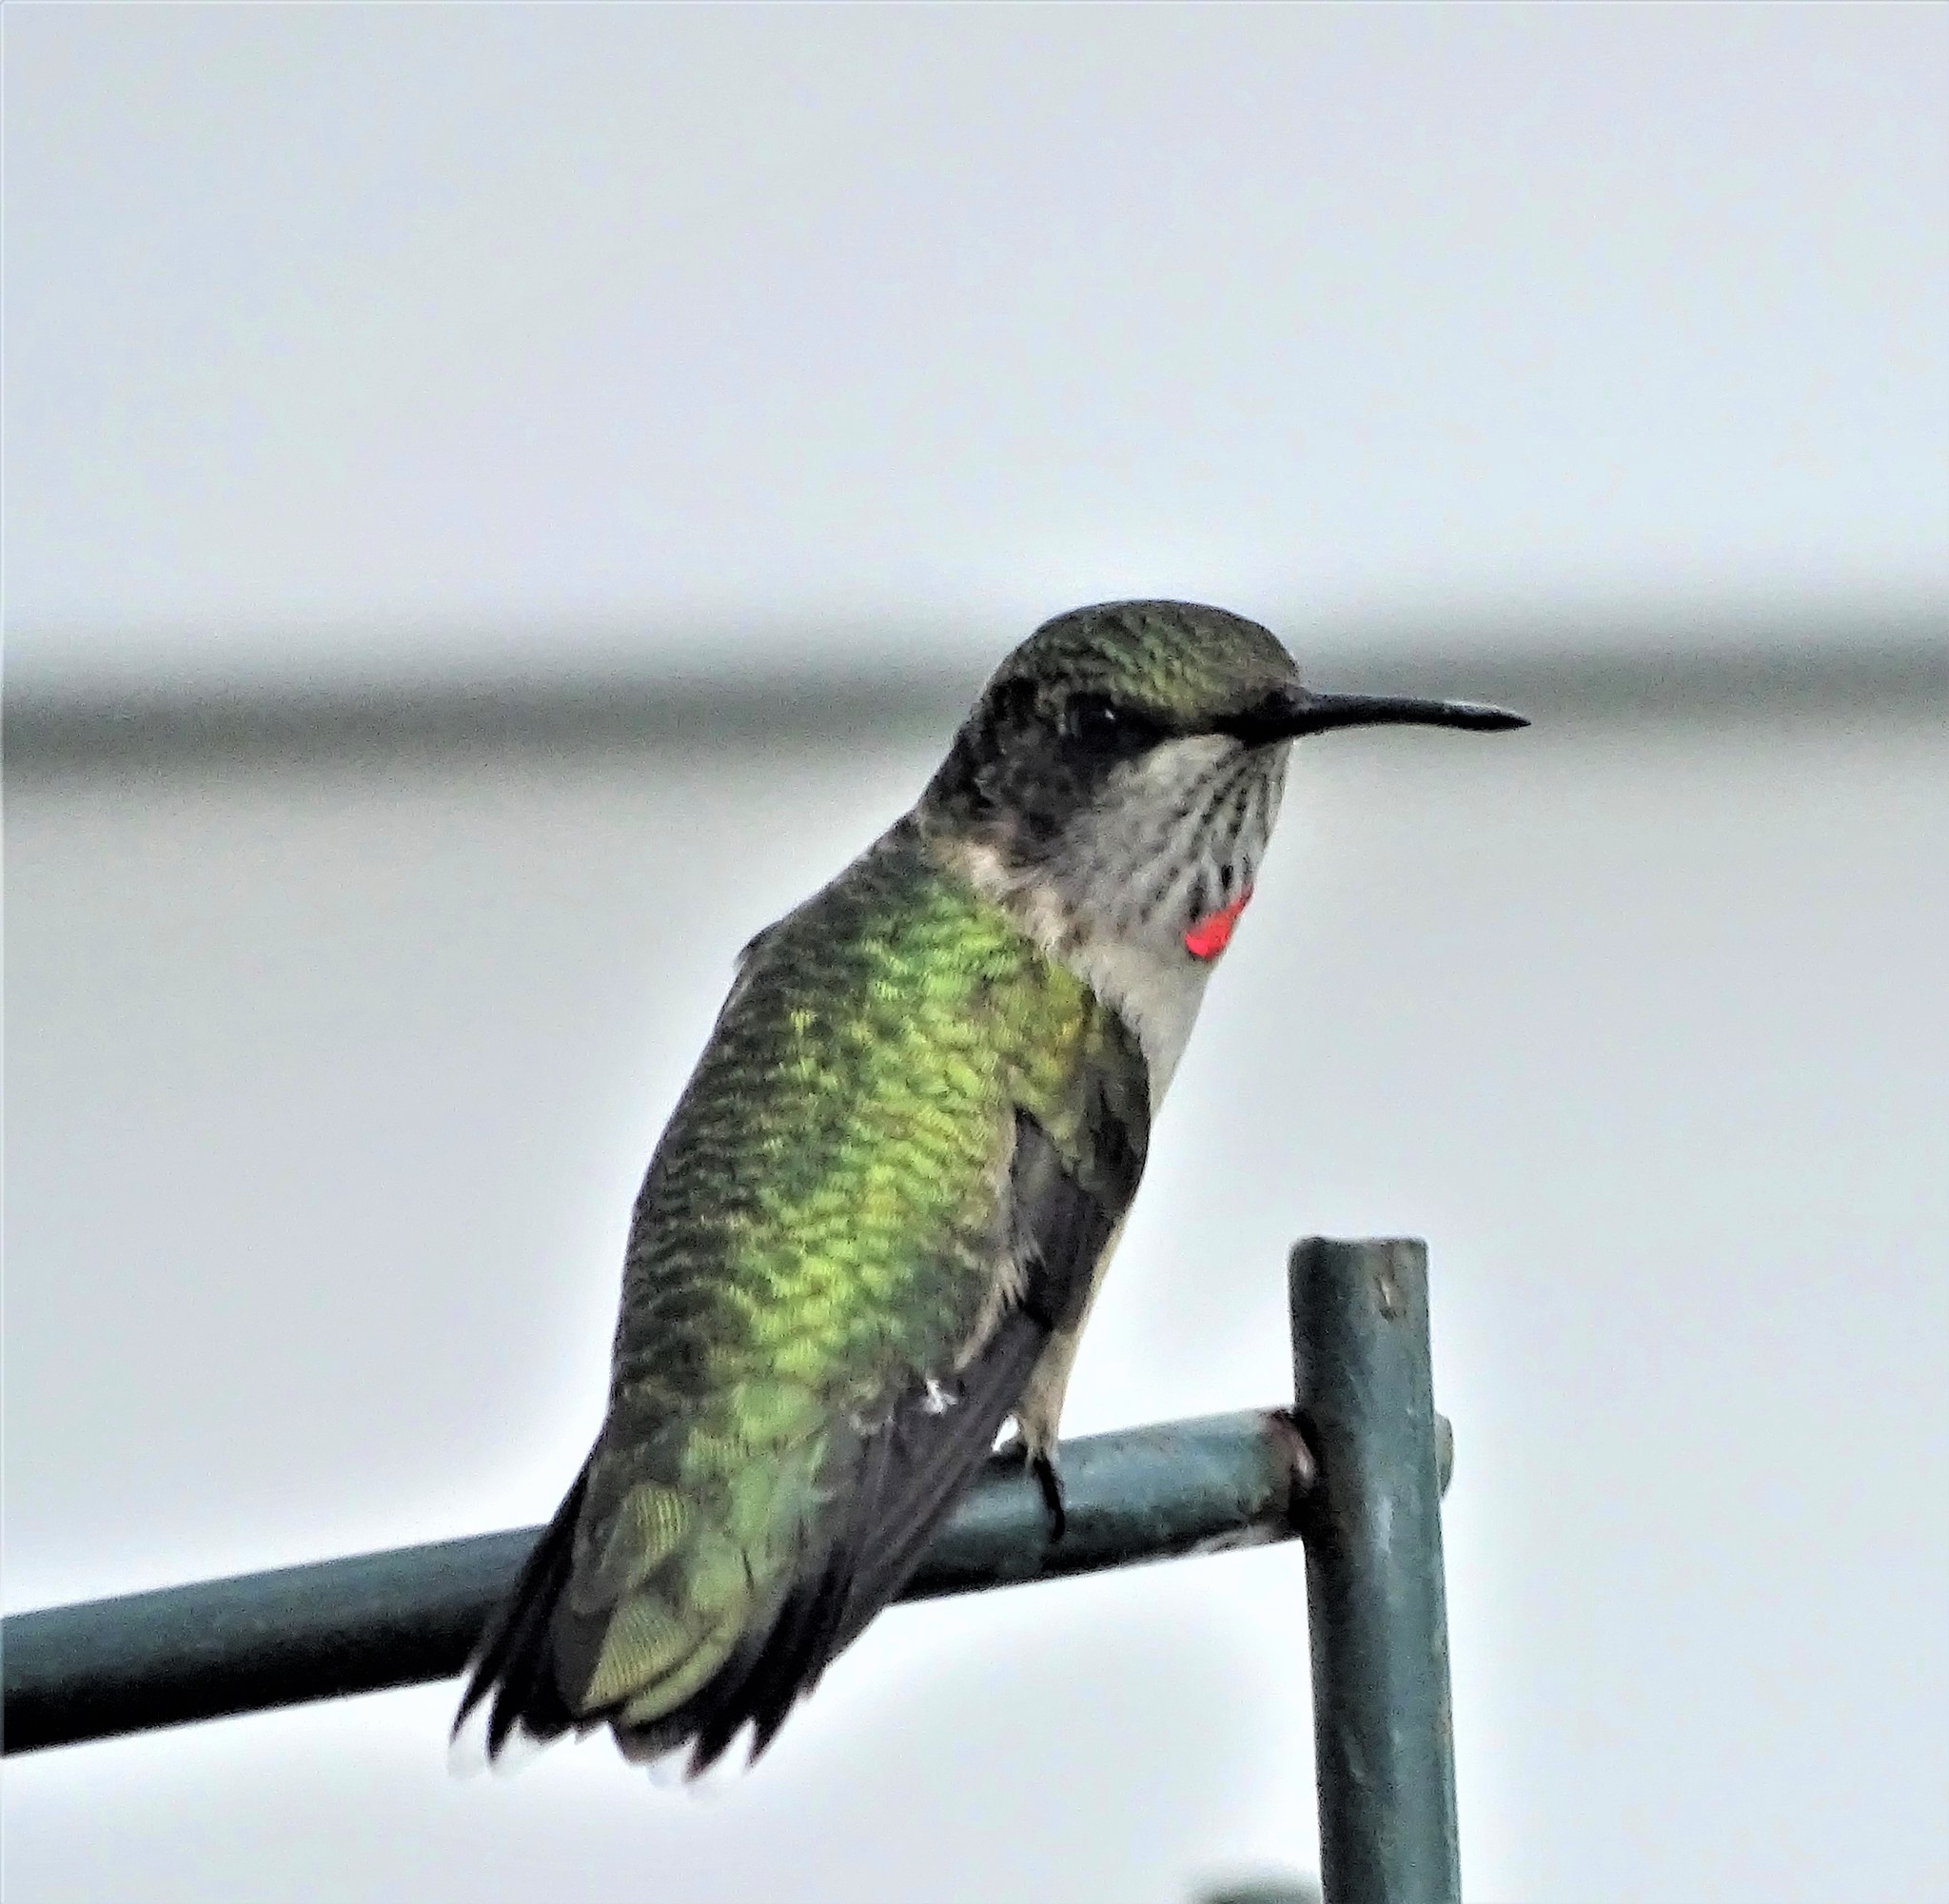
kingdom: Animalia
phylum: Chordata
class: Aves
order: Apodiformes
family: Trochilidae
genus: Archilochus
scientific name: Archilochus colubris
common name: Ruby-throated hummingbird
